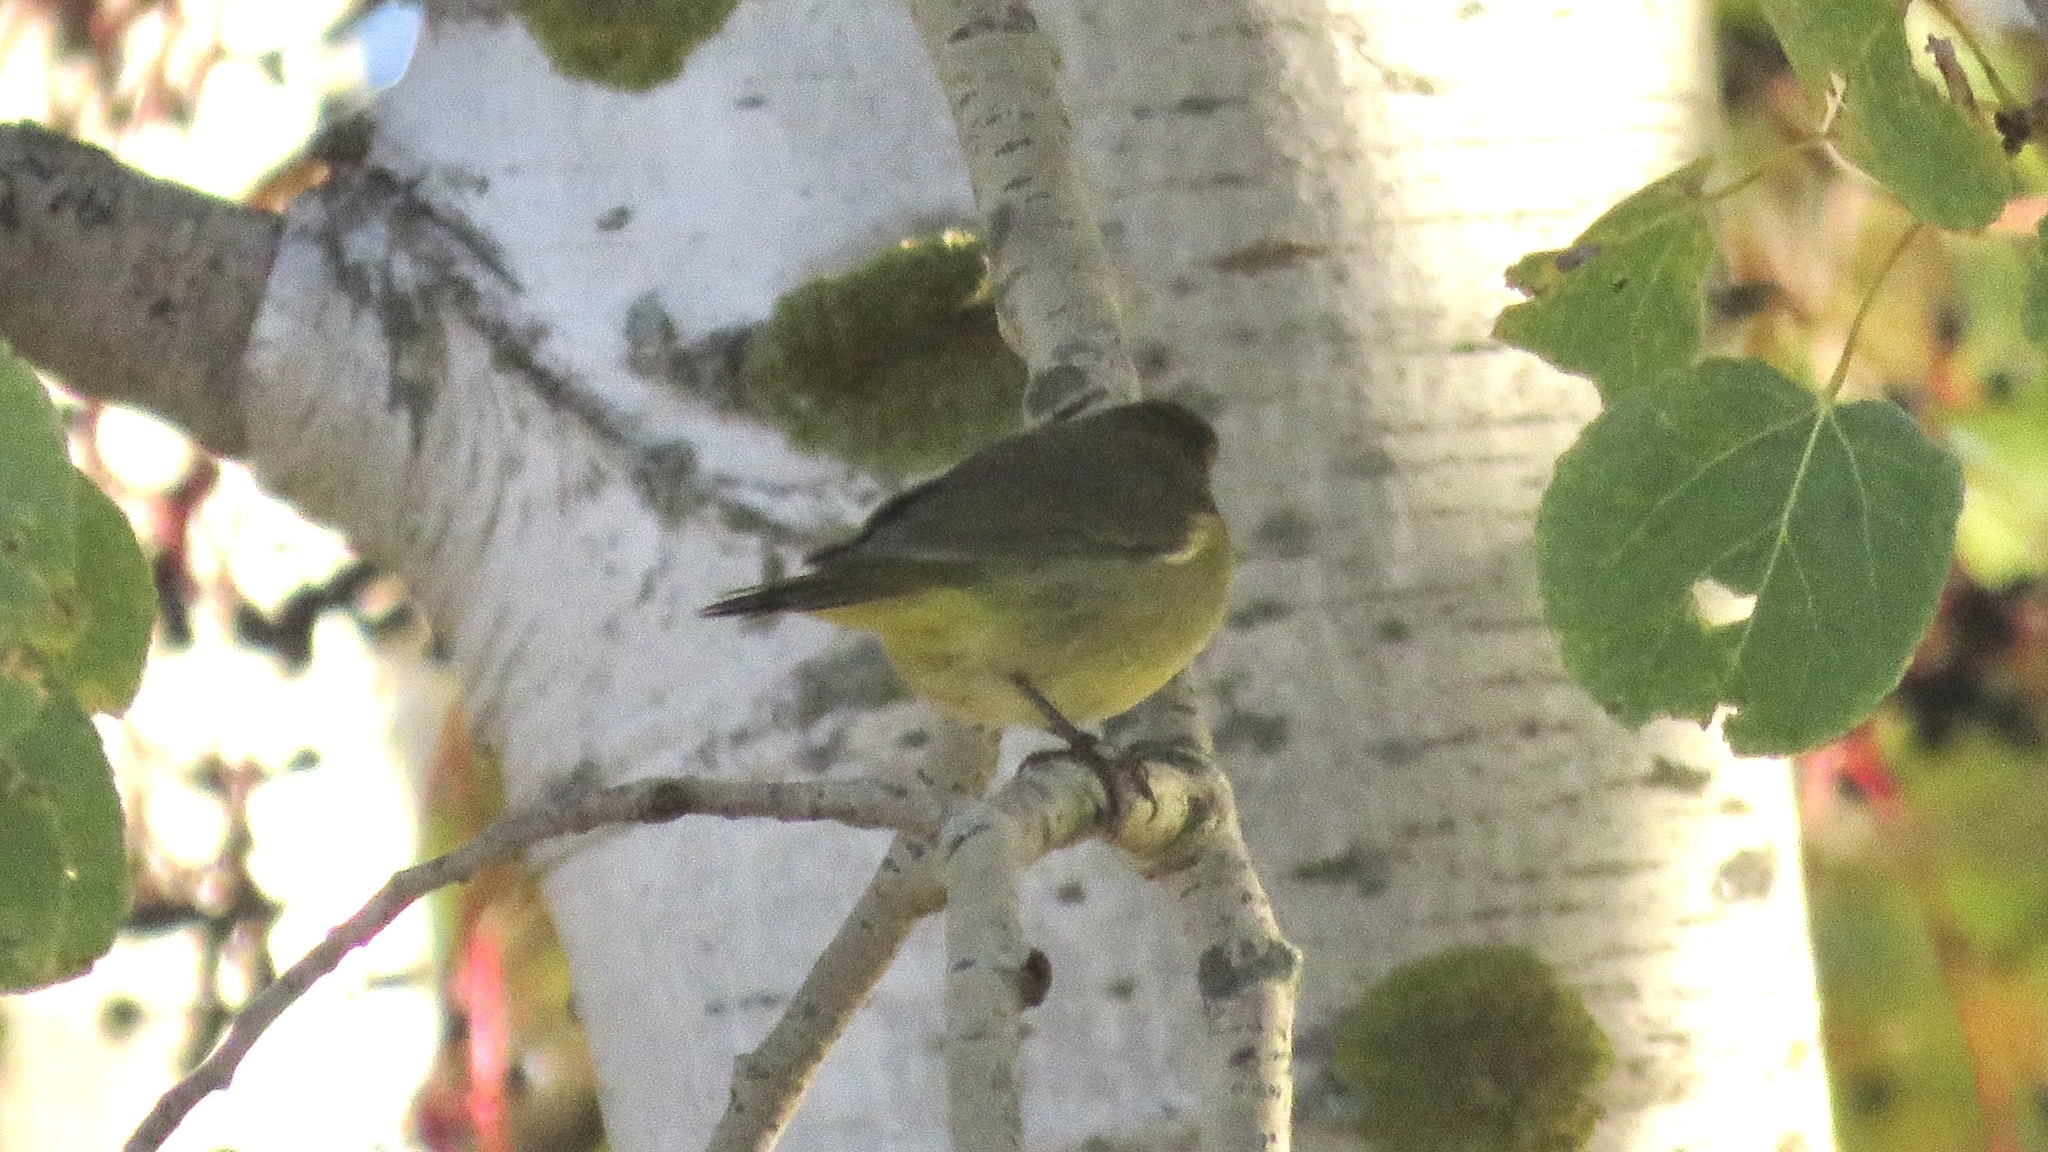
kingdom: Animalia
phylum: Chordata
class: Aves
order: Passeriformes
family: Parulidae
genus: Leiothlypis
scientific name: Leiothlypis celata
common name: Orange-crowned warbler
